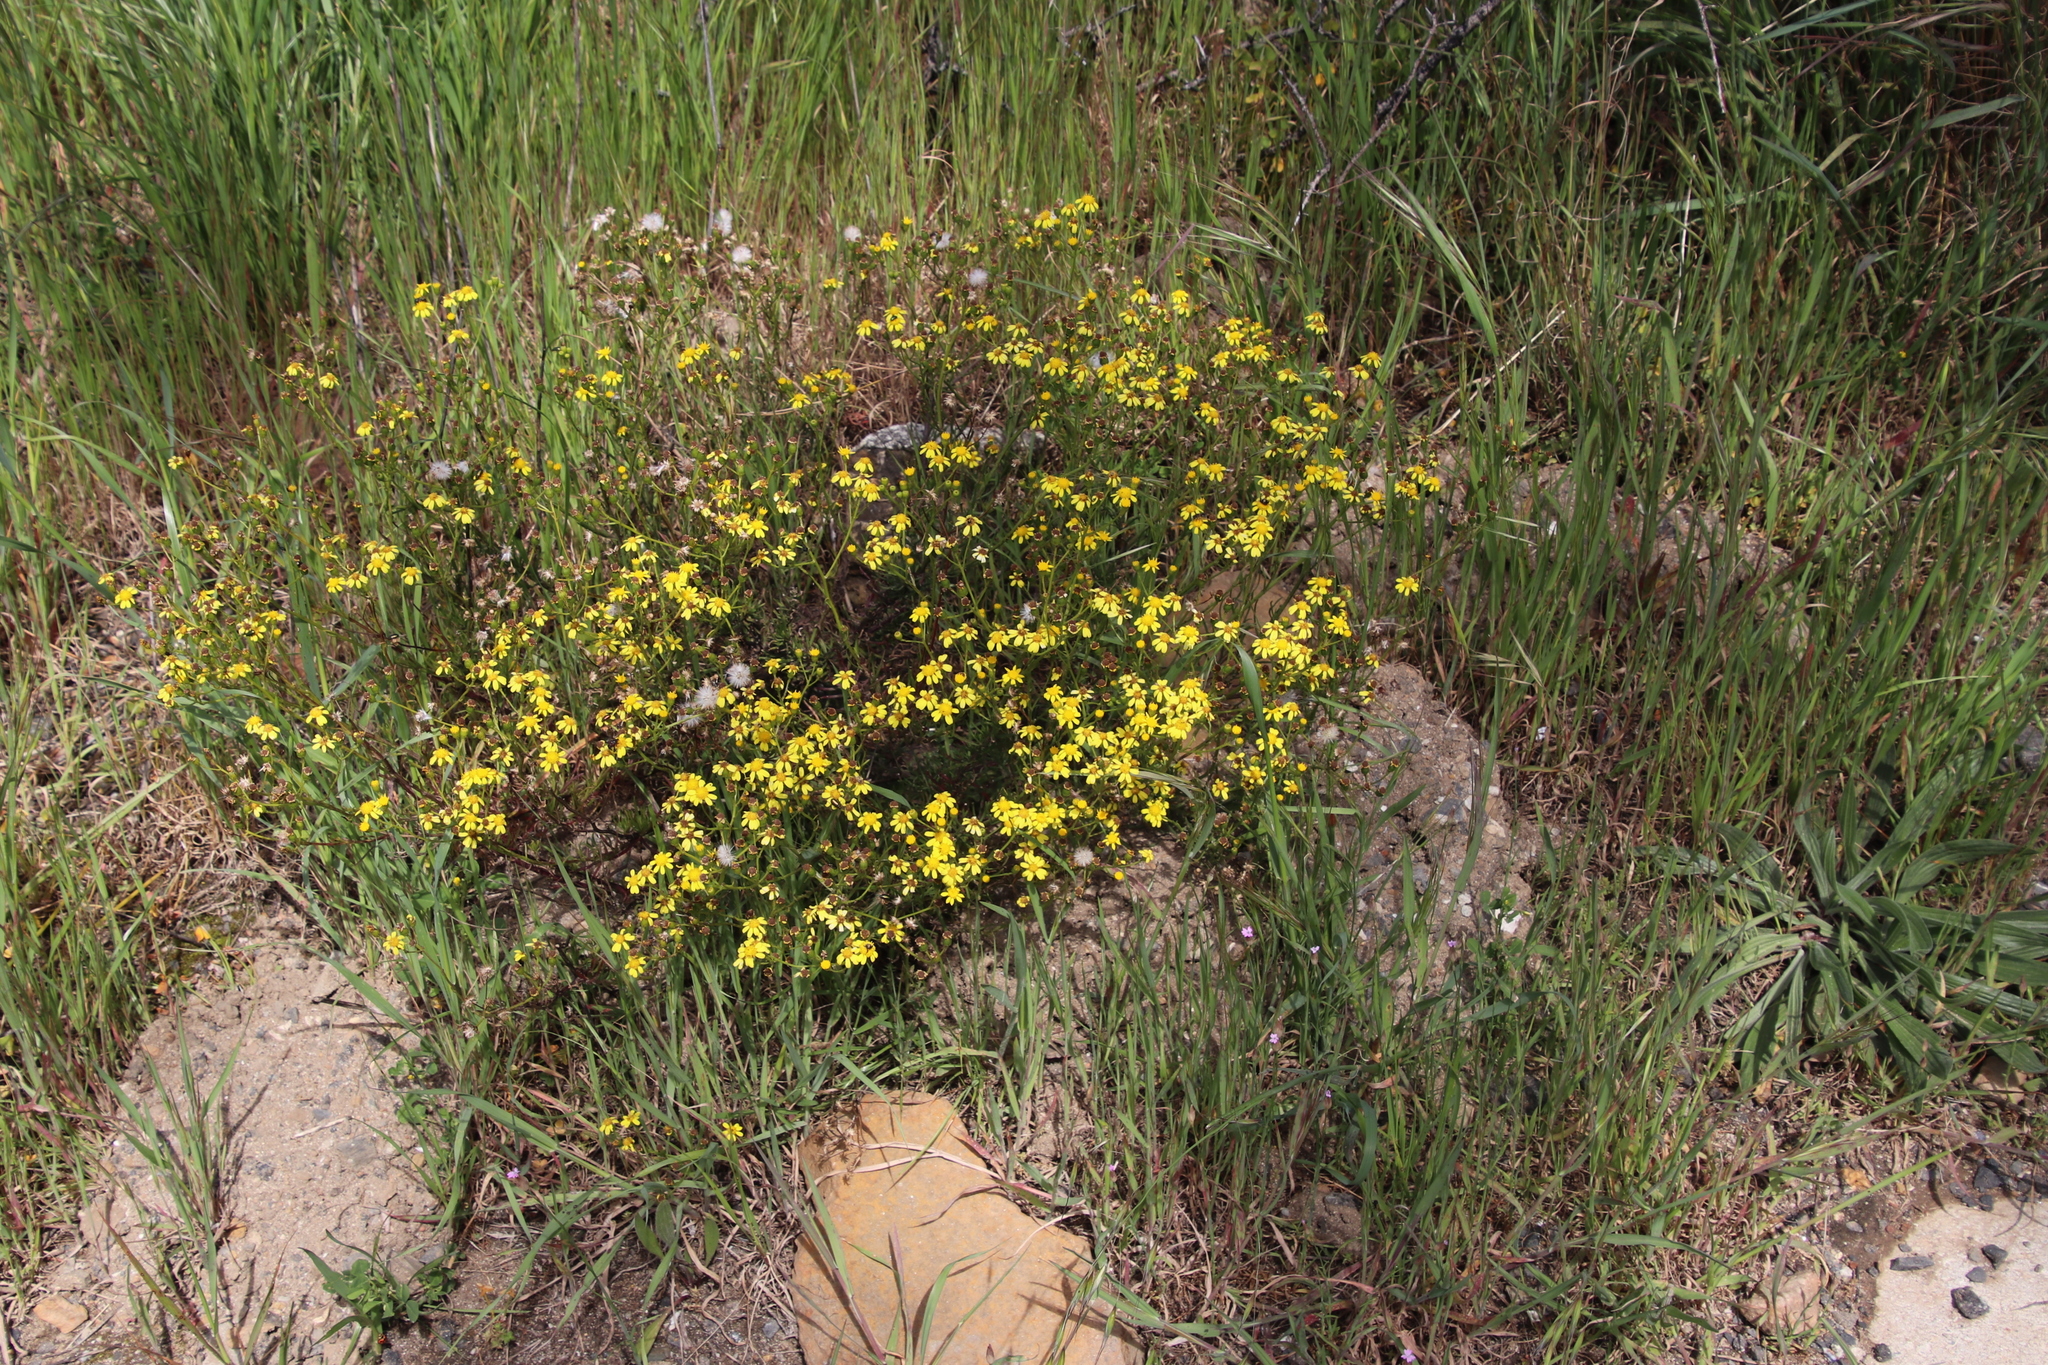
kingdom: Plantae
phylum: Tracheophyta
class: Magnoliopsida
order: Asterales
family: Asteraceae
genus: Senecio
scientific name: Senecio burchellii
